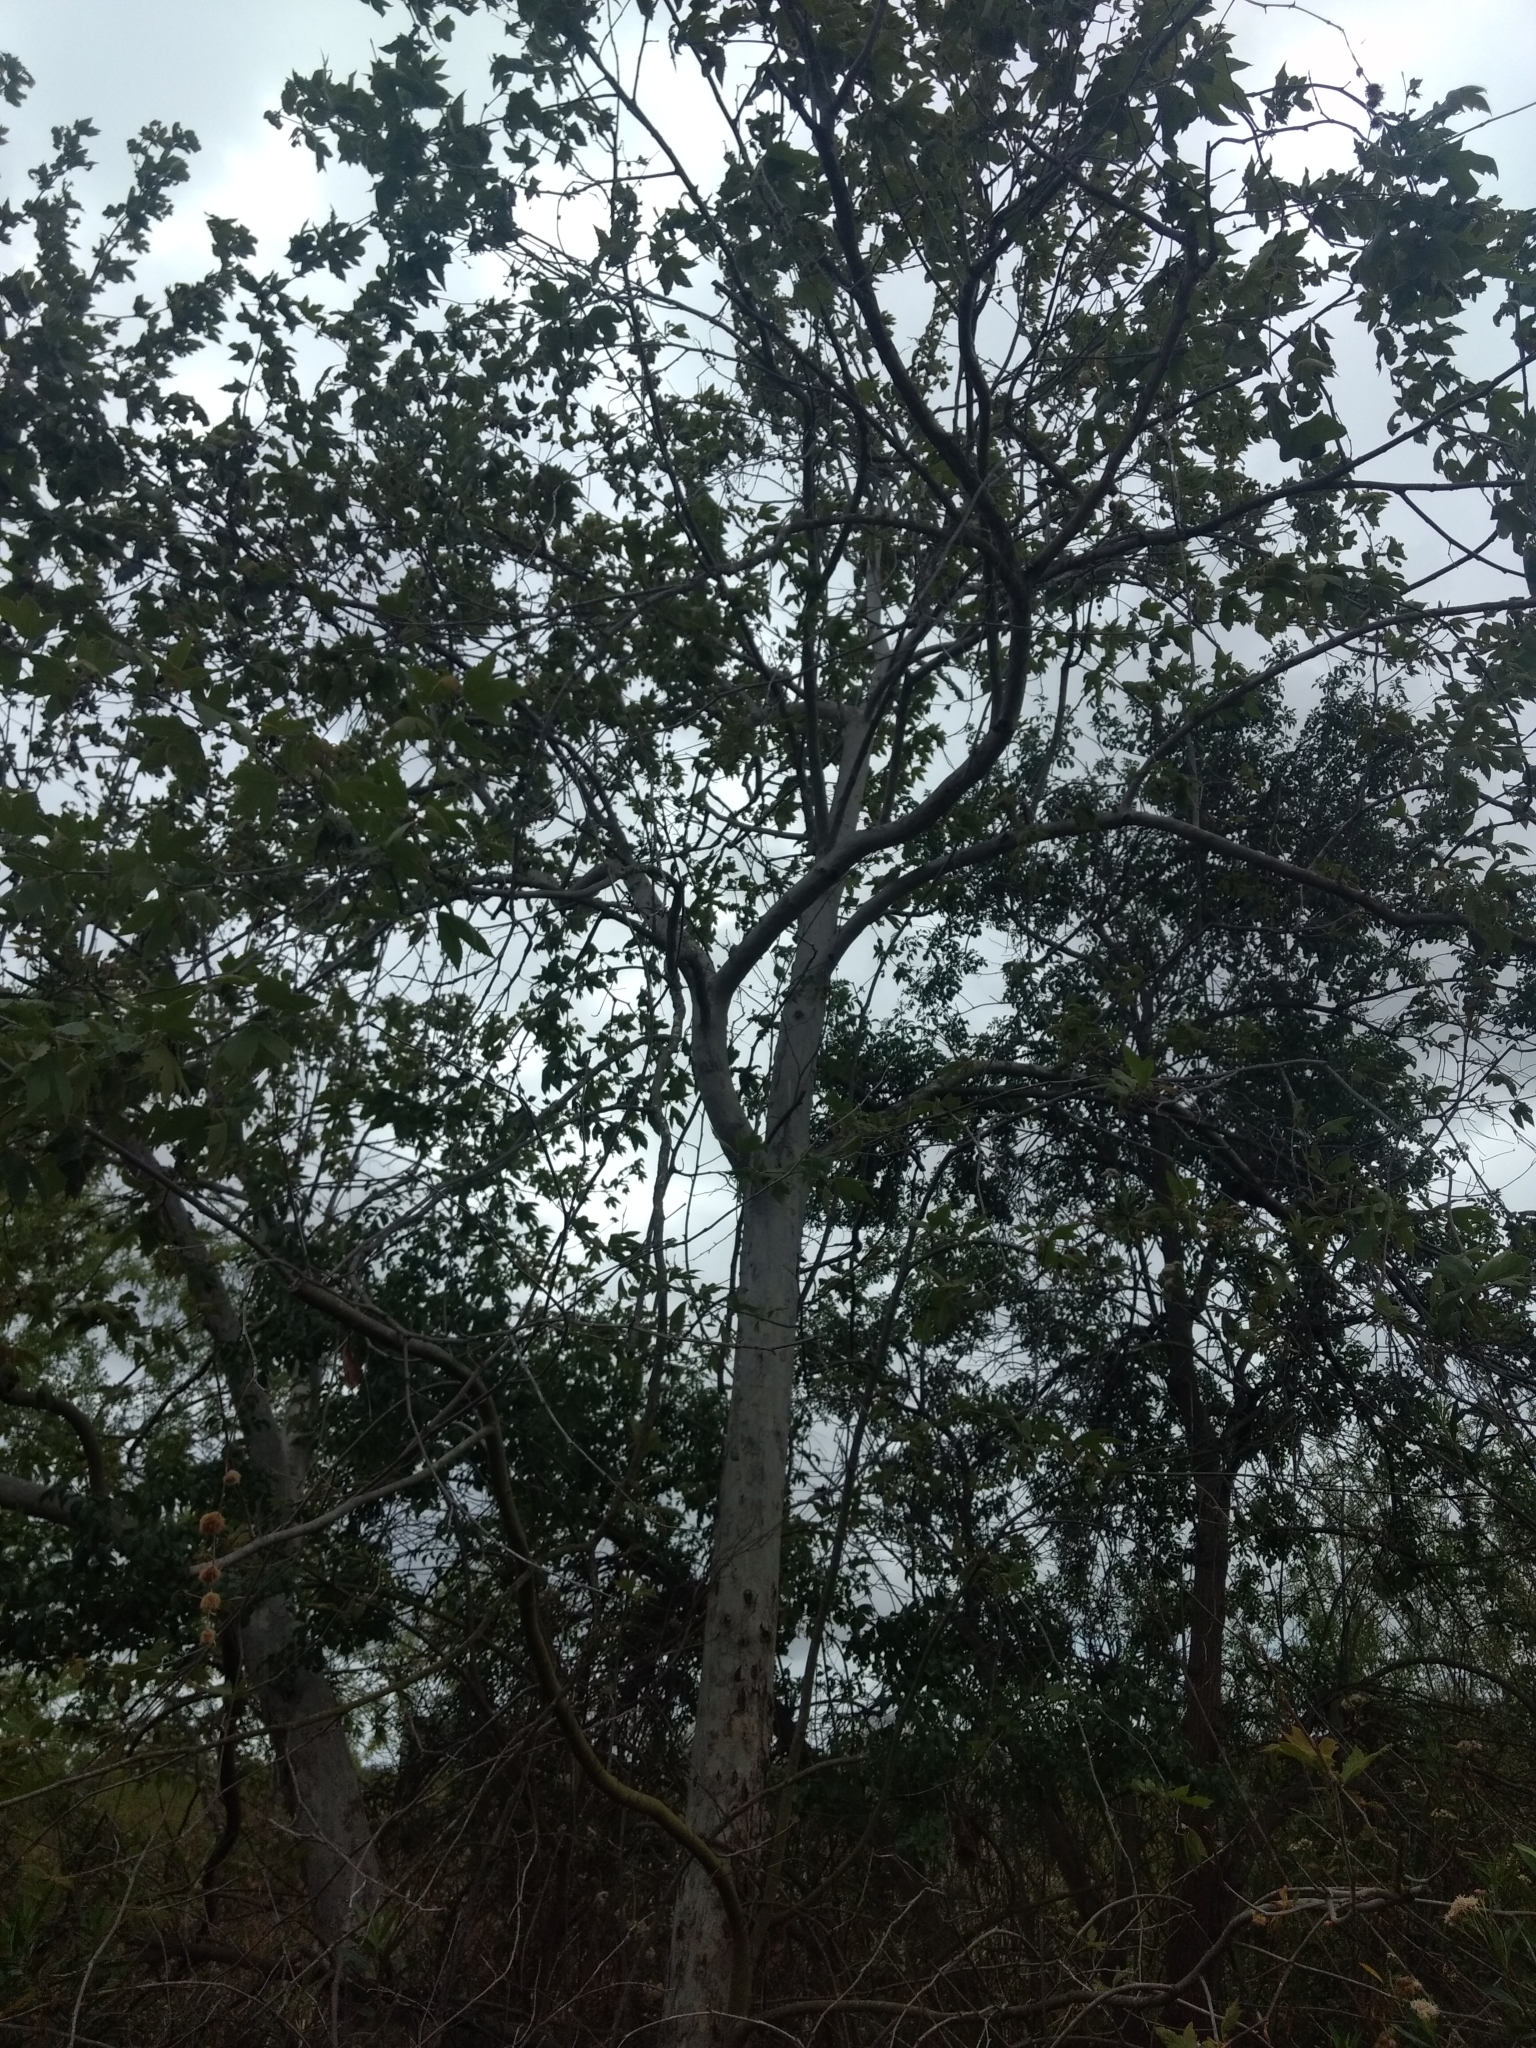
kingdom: Plantae
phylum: Tracheophyta
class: Magnoliopsida
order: Proteales
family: Platanaceae
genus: Platanus
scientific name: Platanus racemosa
